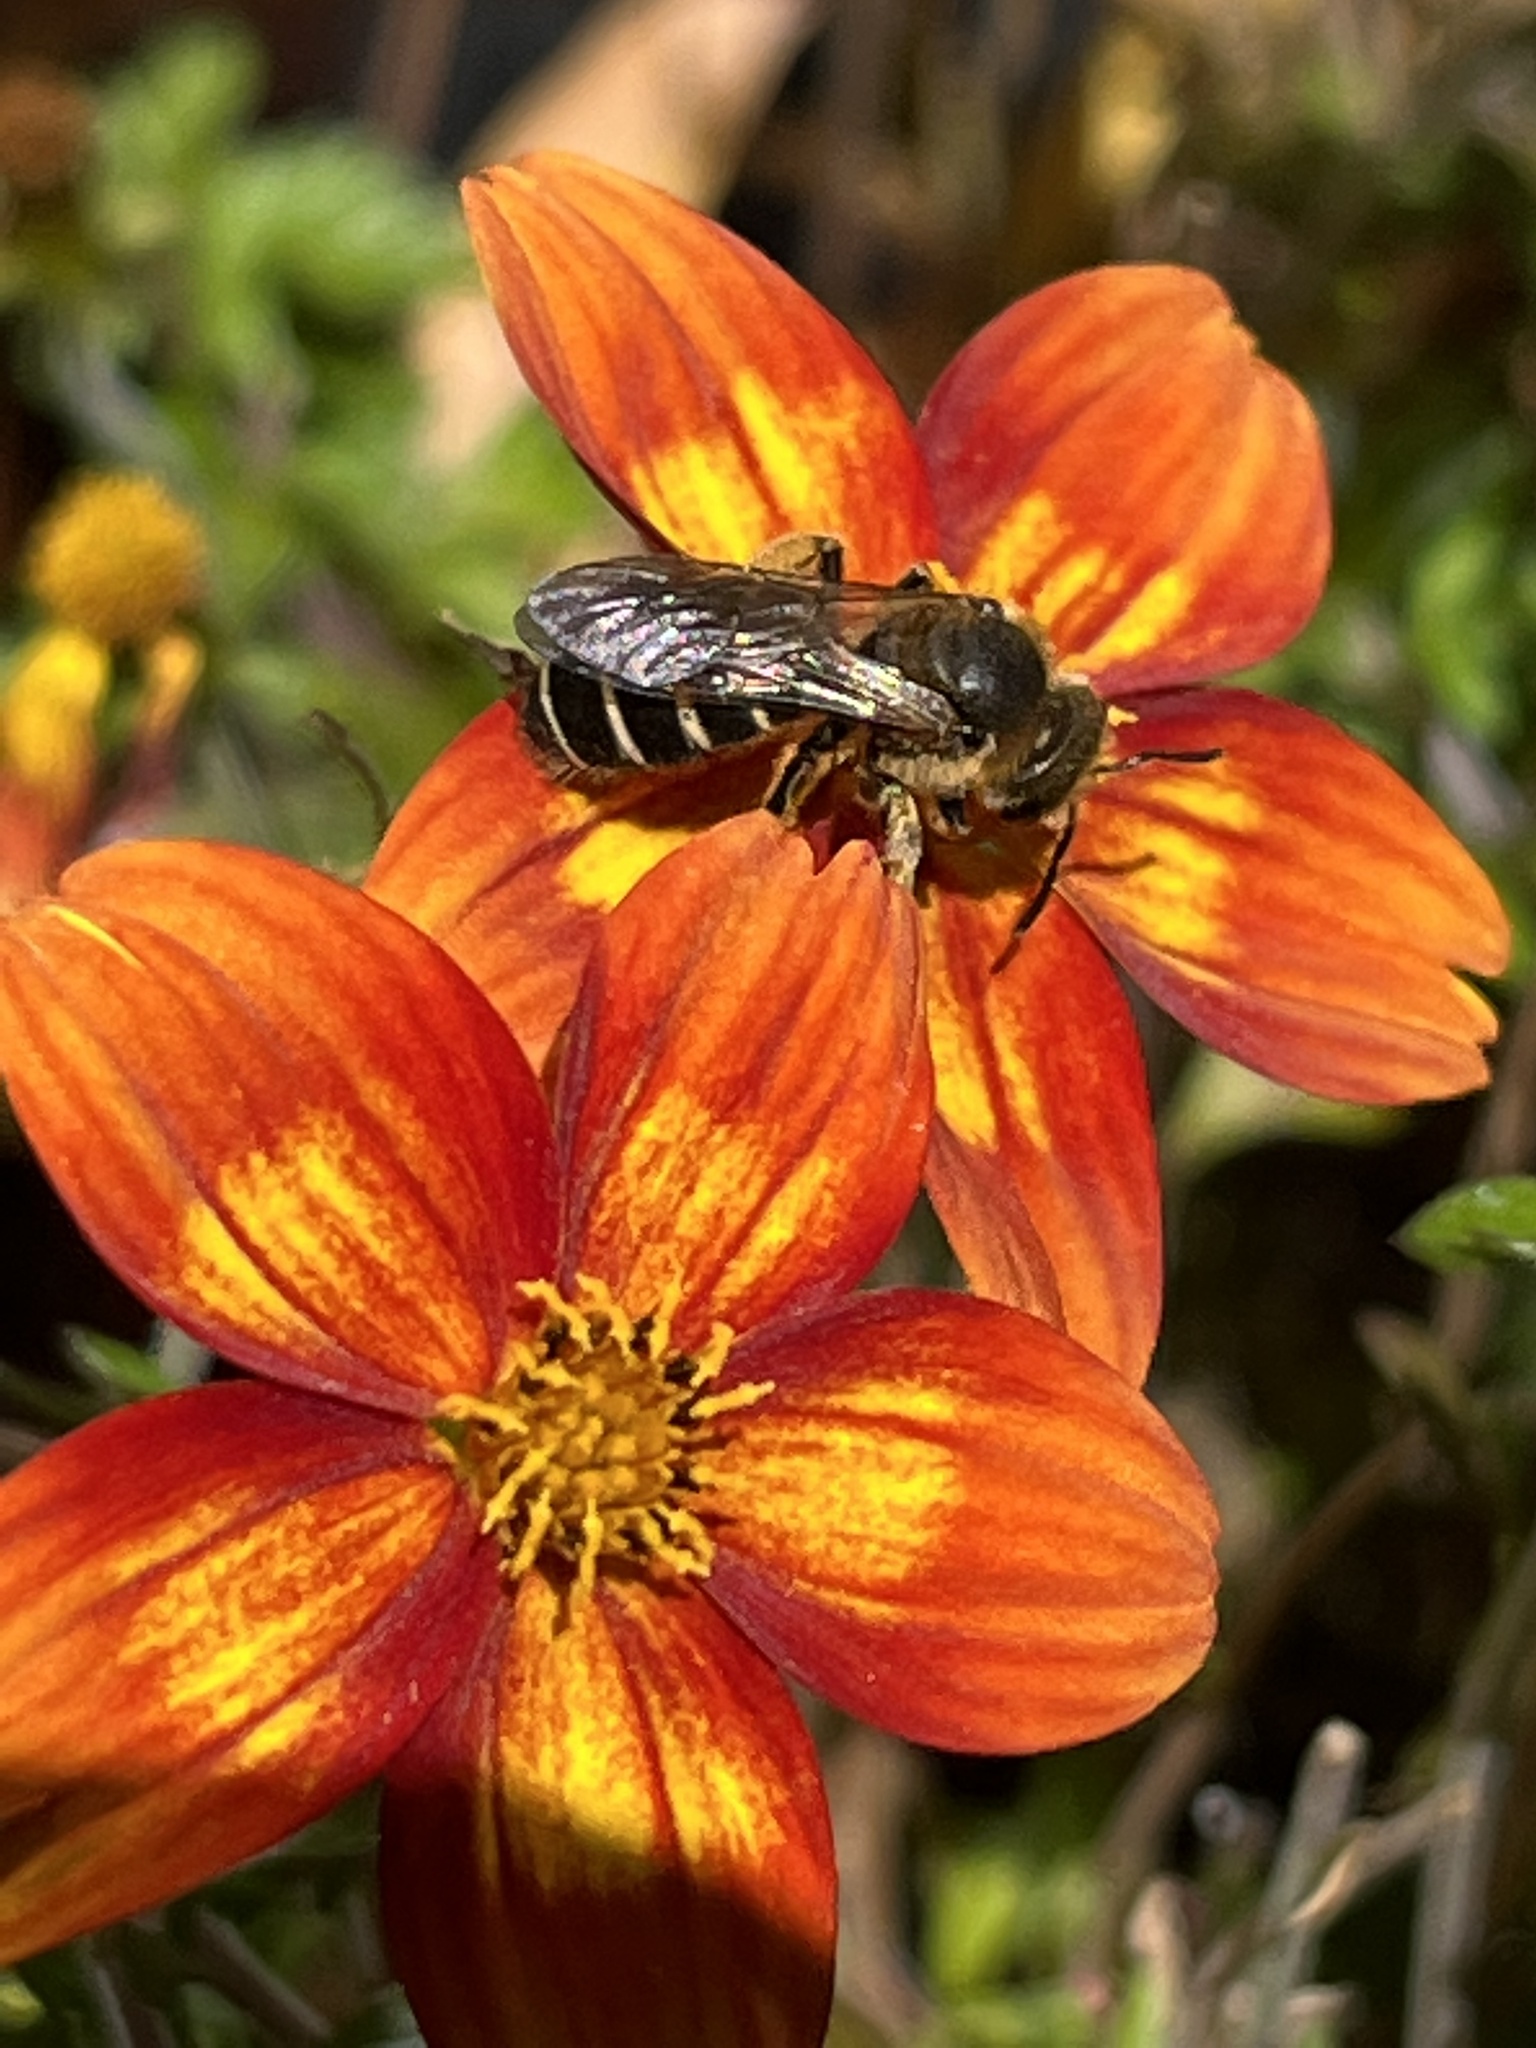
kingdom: Animalia
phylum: Arthropoda
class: Insecta
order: Hymenoptera
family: Halictidae
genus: Halictus
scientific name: Halictus rubicundus
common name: Orange-legged furrow bee
